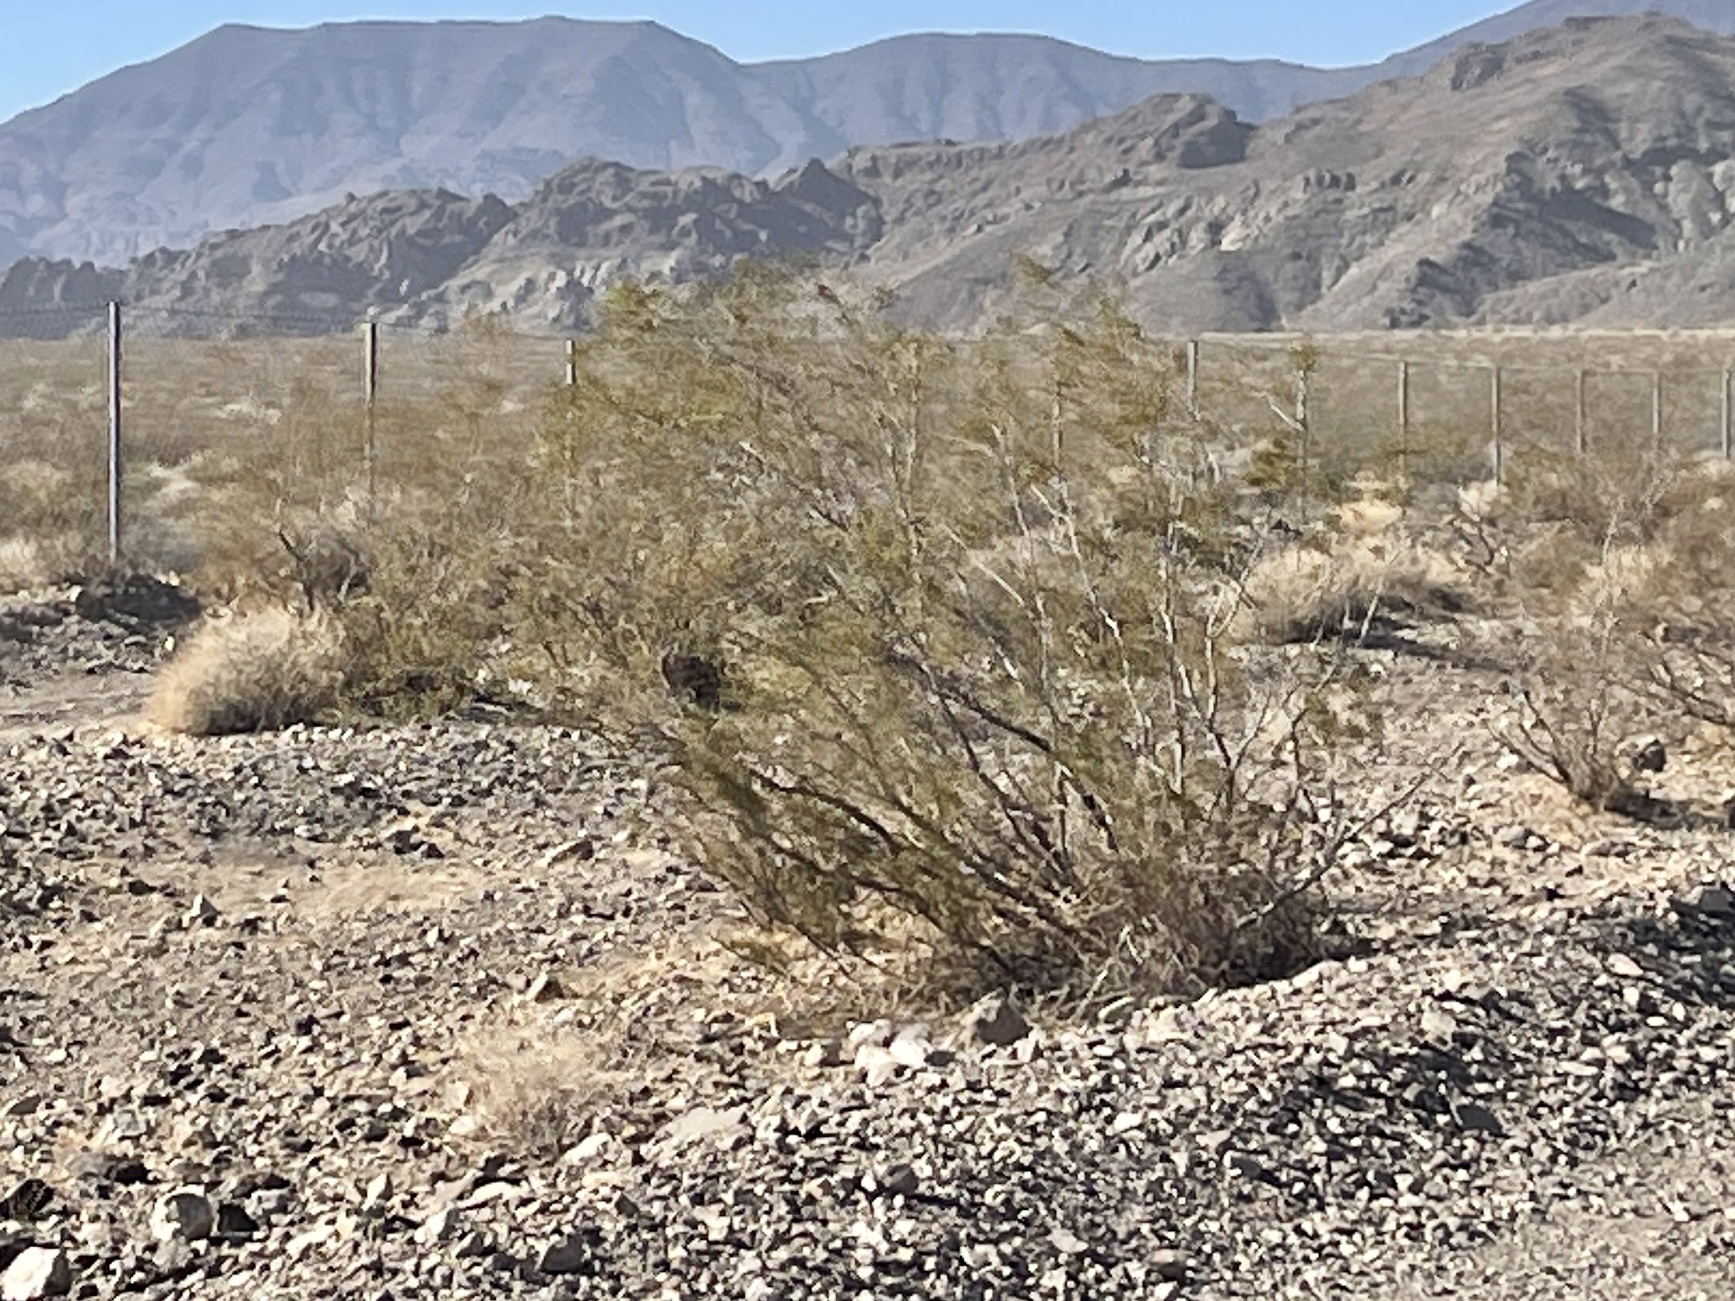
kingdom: Plantae
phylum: Tracheophyta
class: Magnoliopsida
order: Zygophyllales
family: Zygophyllaceae
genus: Larrea
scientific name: Larrea tridentata
